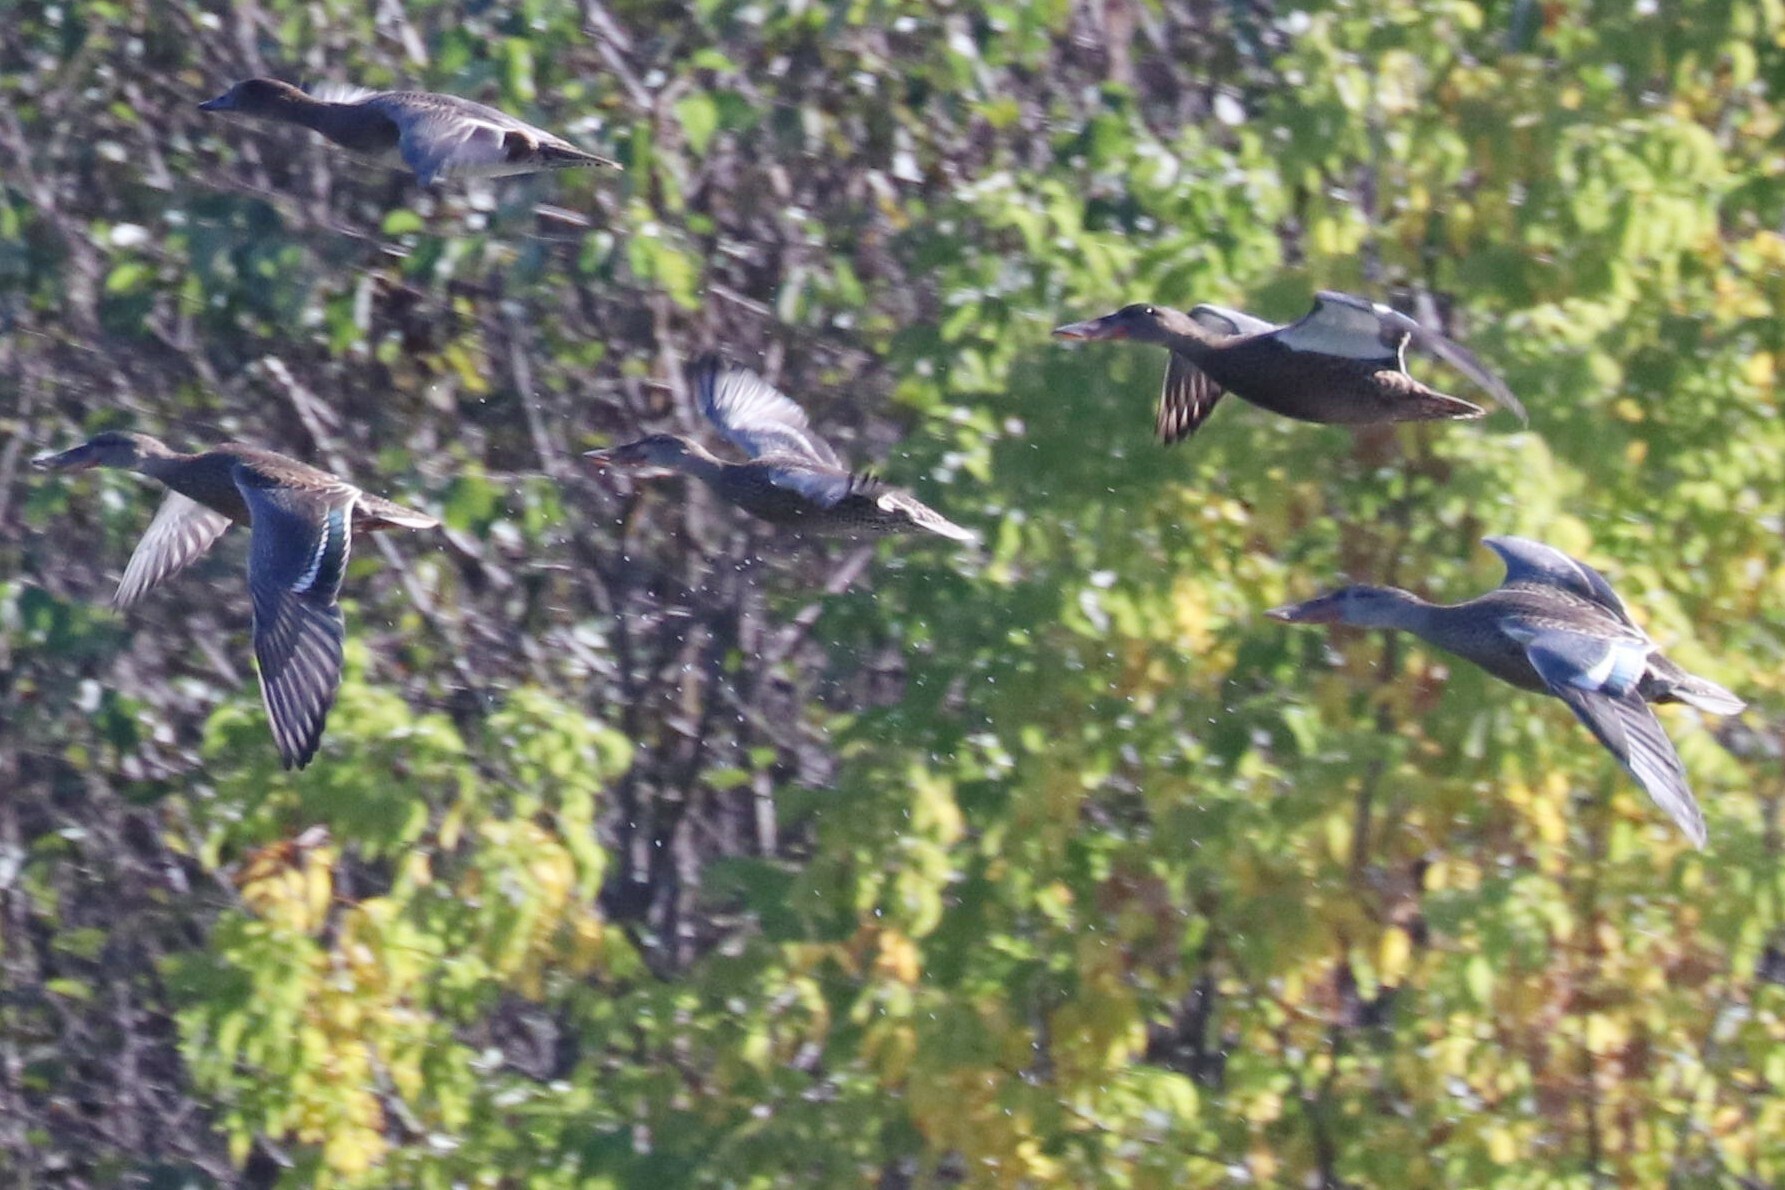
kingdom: Animalia
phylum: Chordata
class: Aves
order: Anseriformes
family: Anatidae
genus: Spatula
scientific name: Spatula clypeata
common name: Northern shoveler
